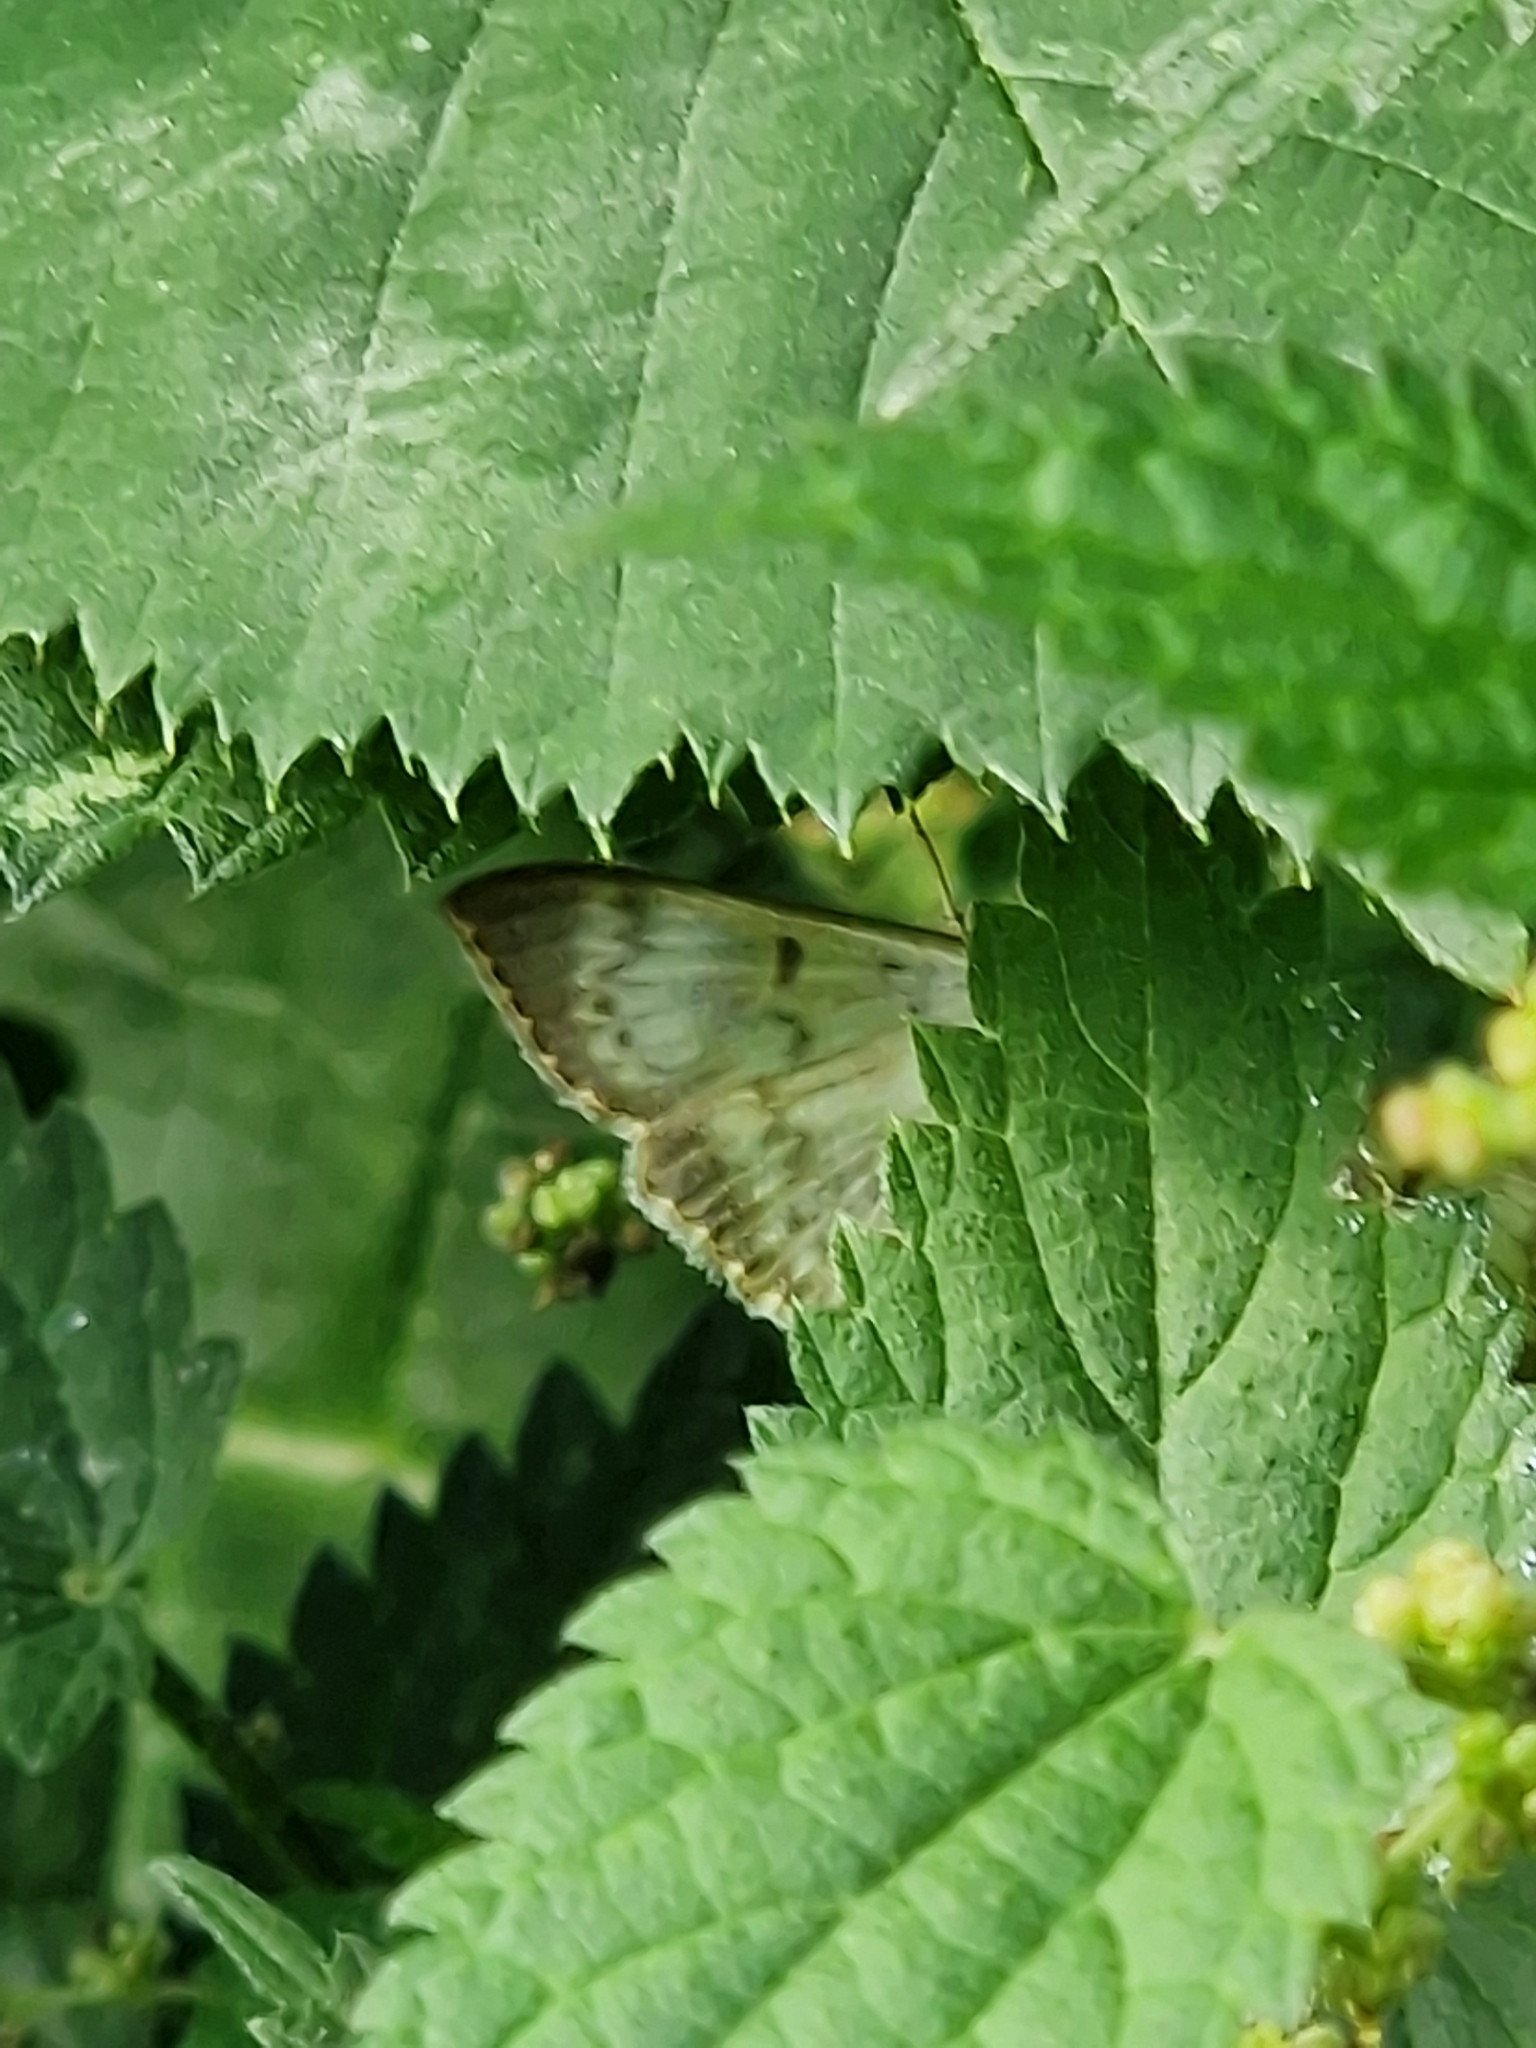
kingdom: Animalia
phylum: Arthropoda
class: Insecta
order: Lepidoptera
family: Crambidae
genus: Patania
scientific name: Patania ruralis
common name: Mother of pearl
